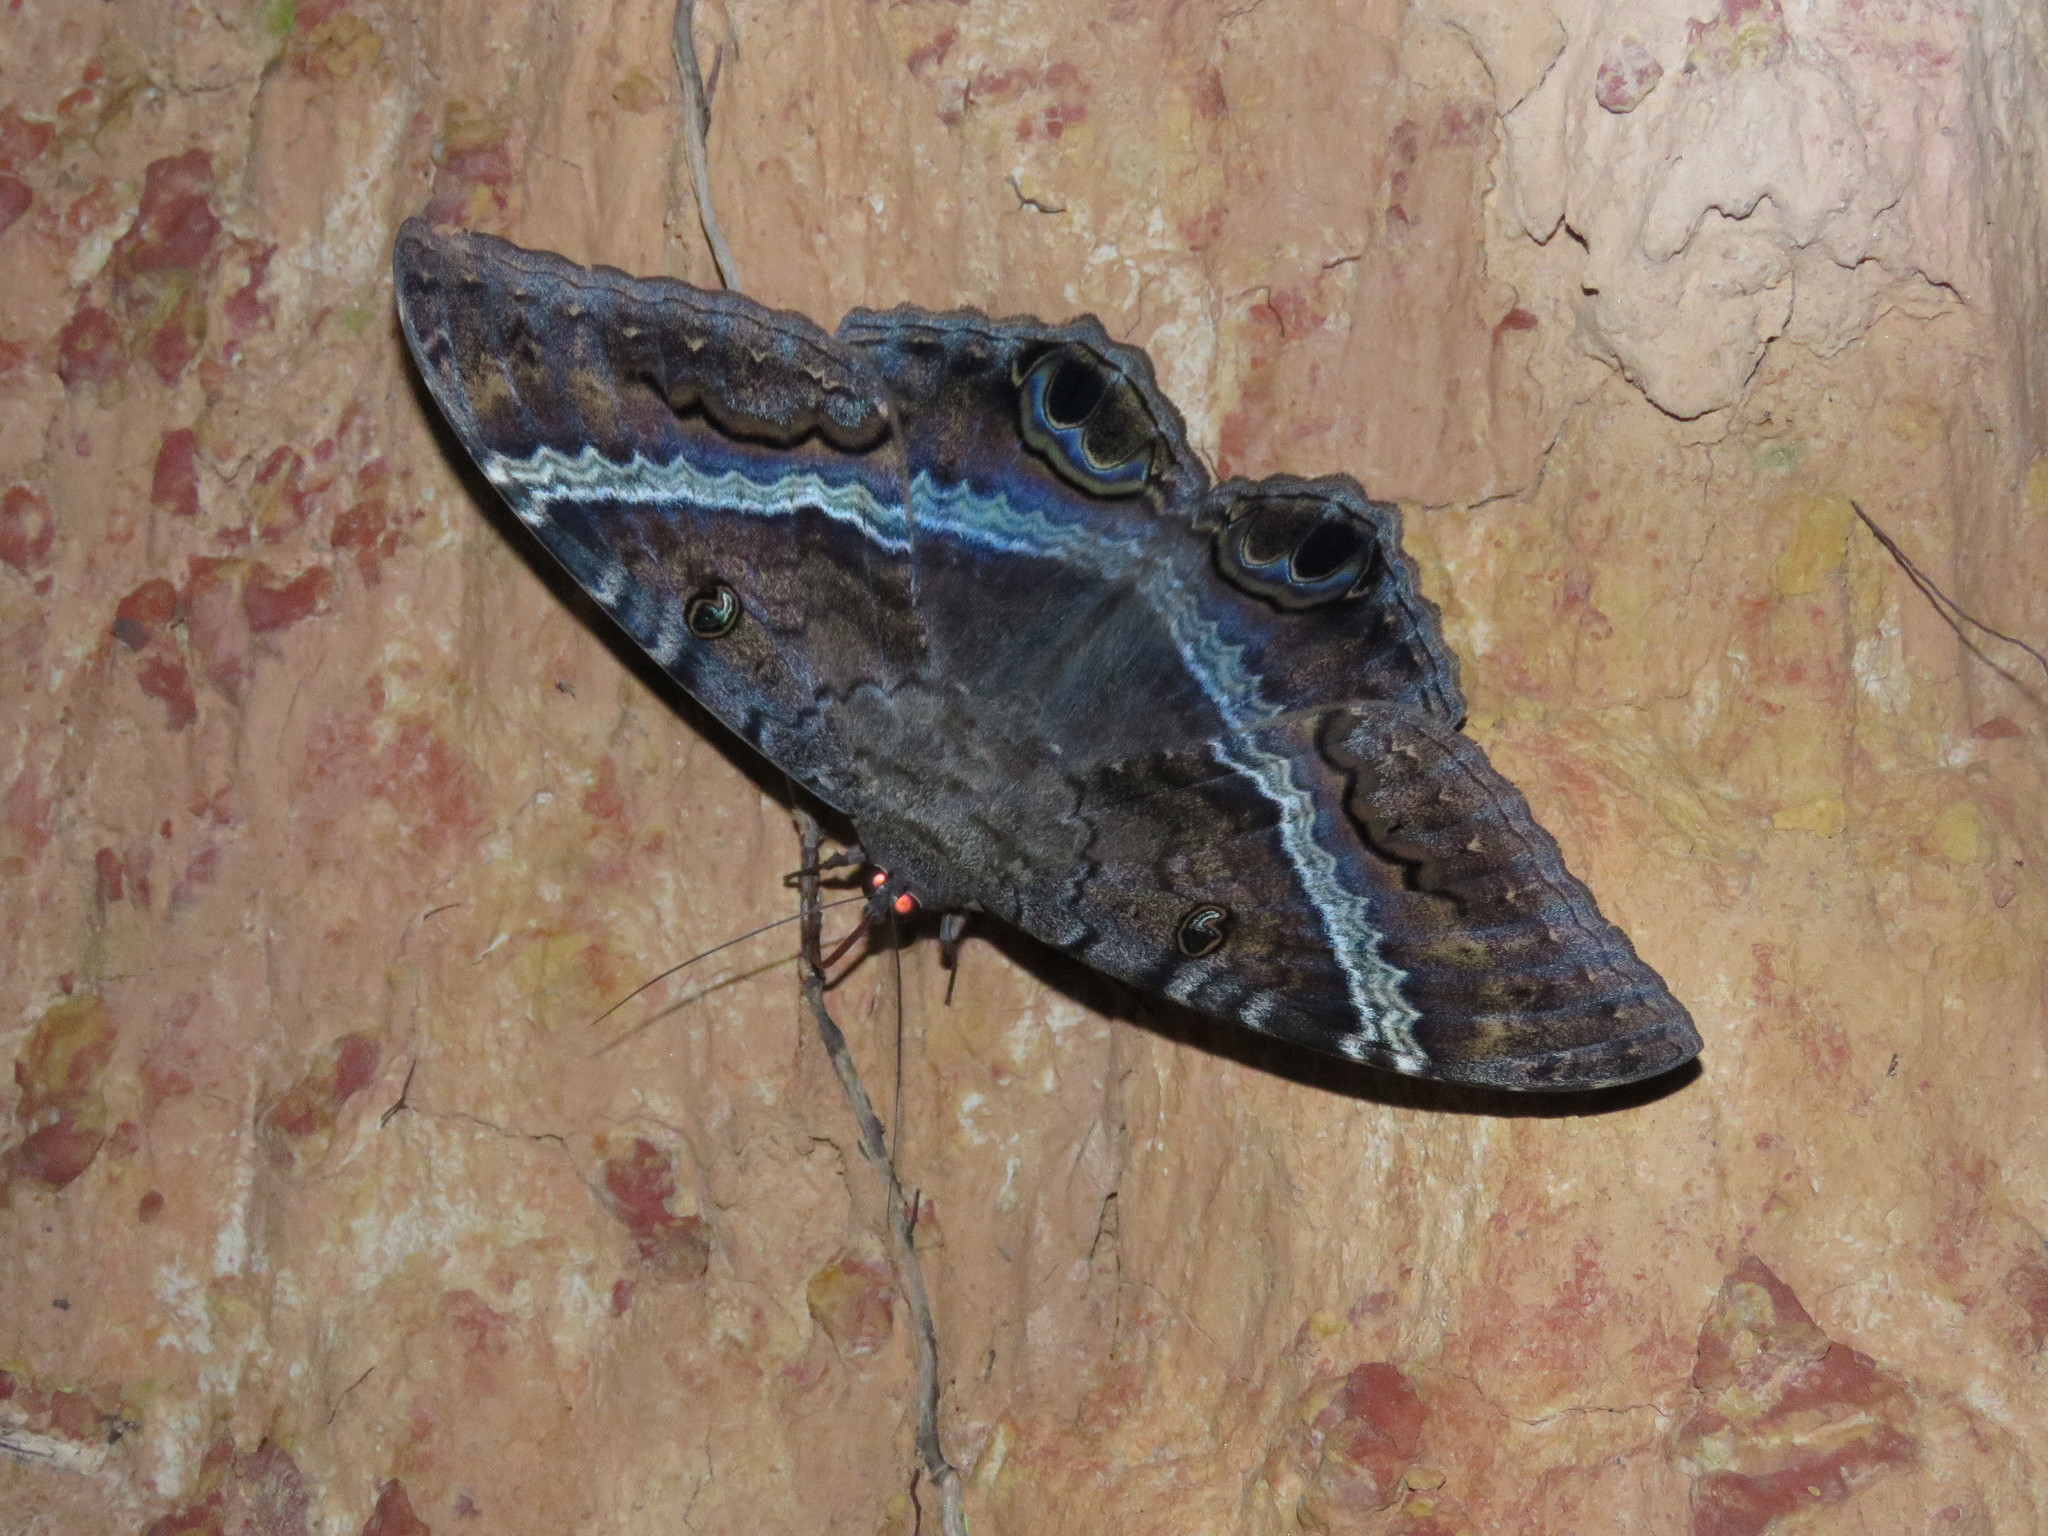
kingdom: Animalia
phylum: Arthropoda
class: Insecta
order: Lepidoptera
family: Erebidae
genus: Ascalapha
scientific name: Ascalapha odorata
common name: Black witch
